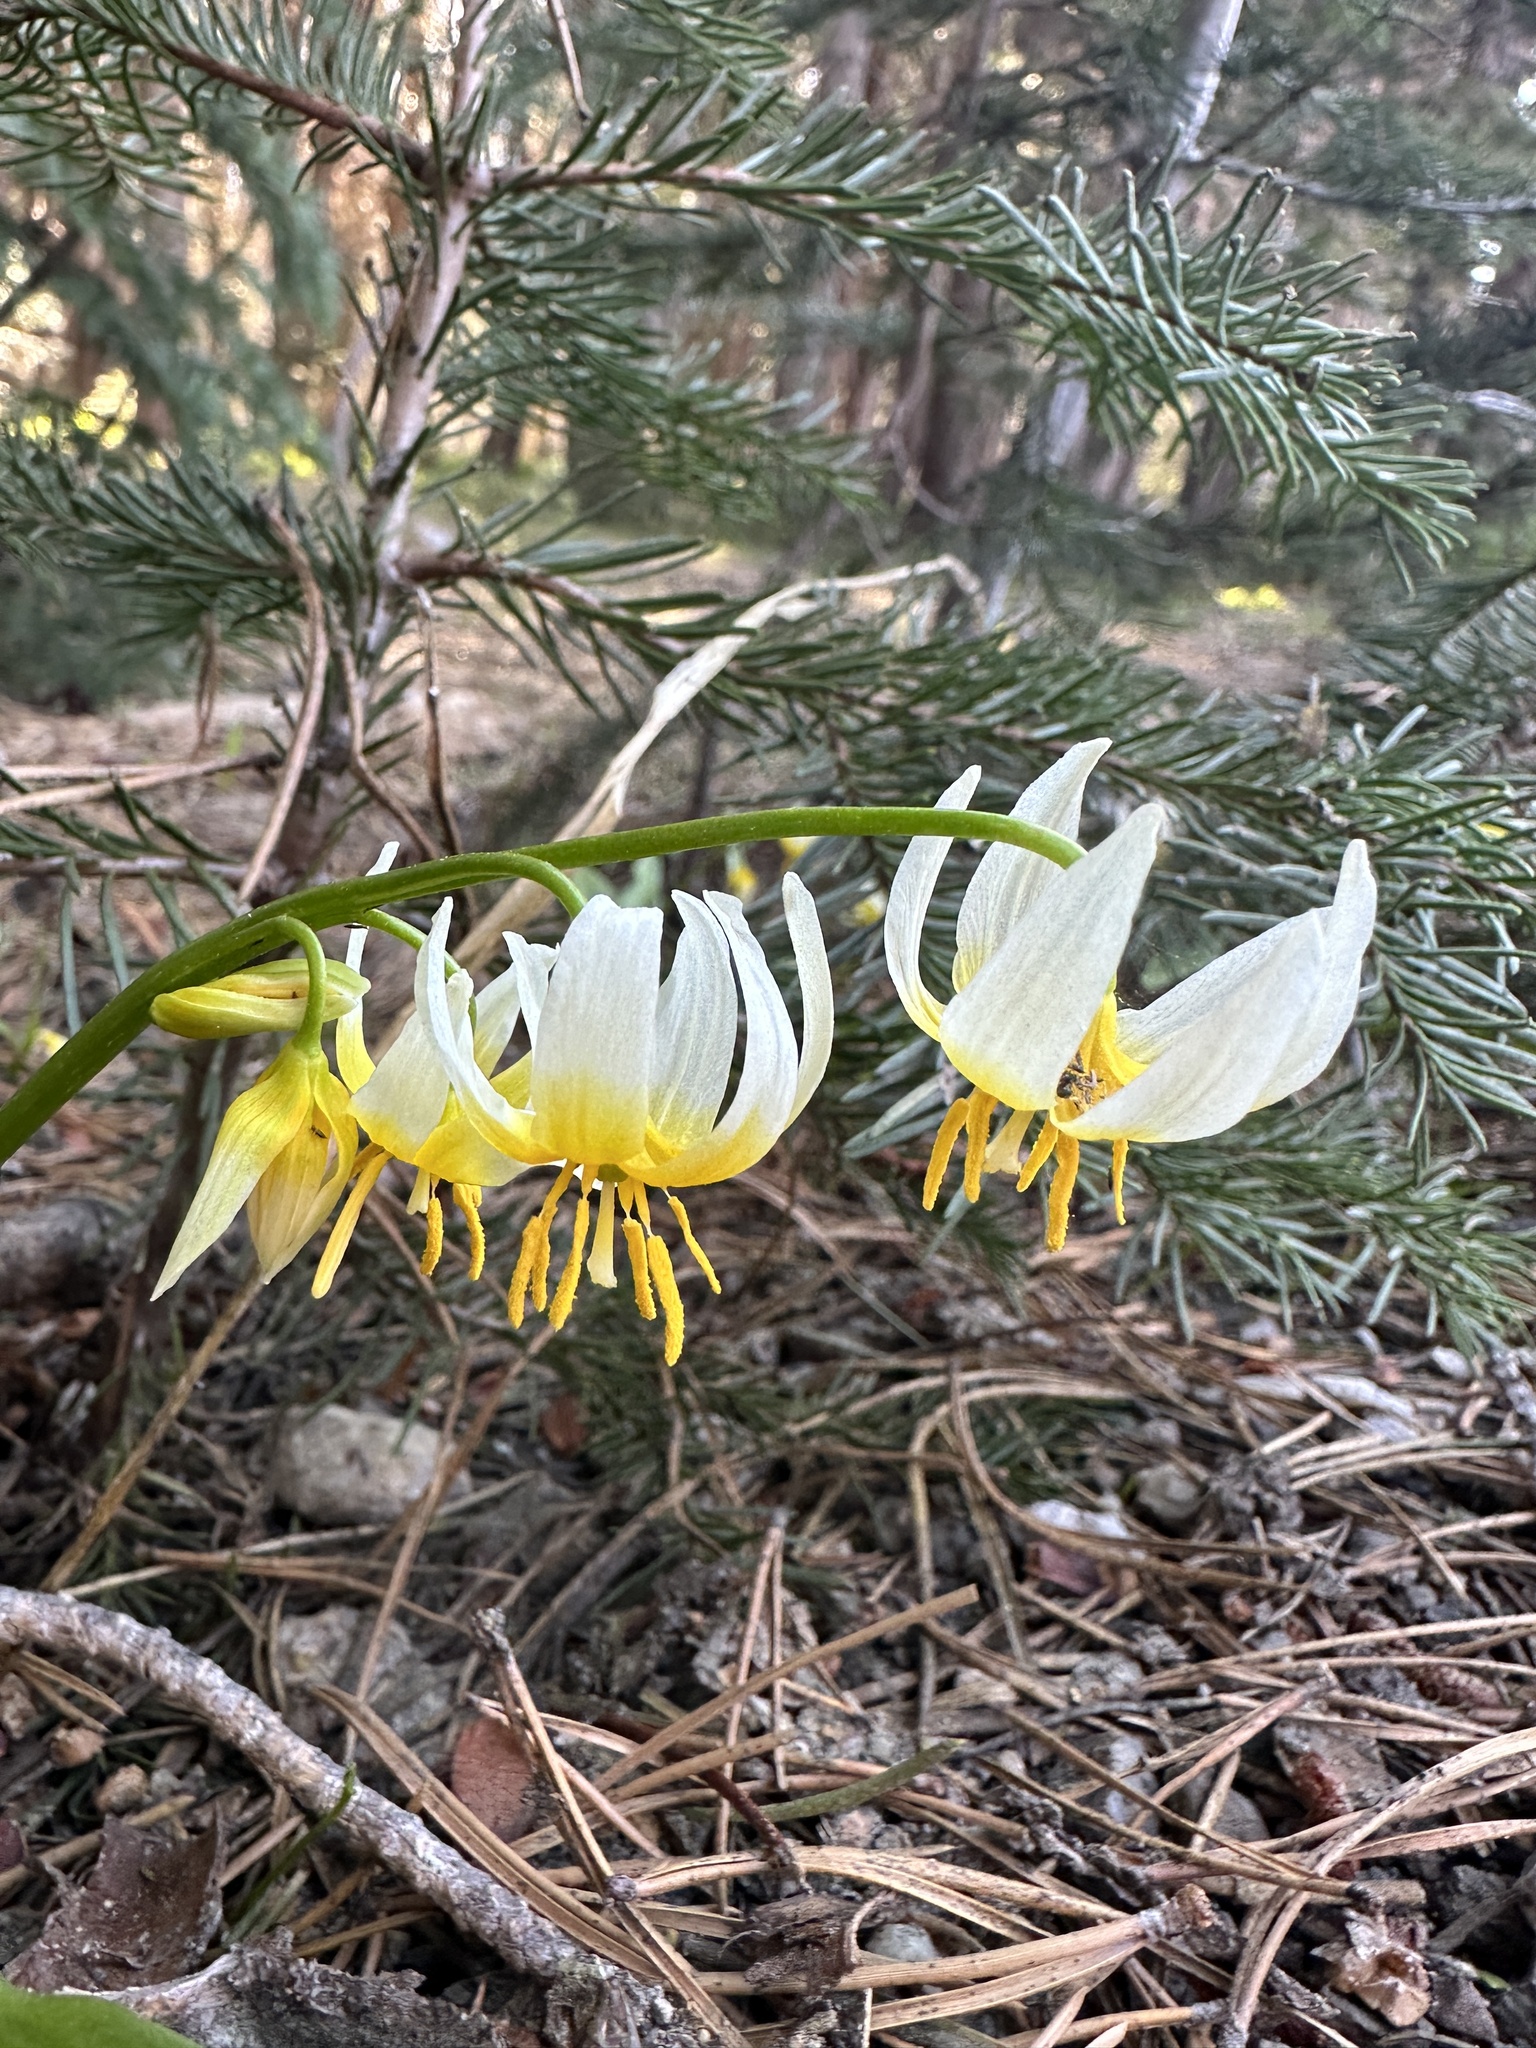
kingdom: Plantae
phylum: Tracheophyta
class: Liliopsida
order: Liliales
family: Liliaceae
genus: Erythronium
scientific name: Erythronium purpurascens
